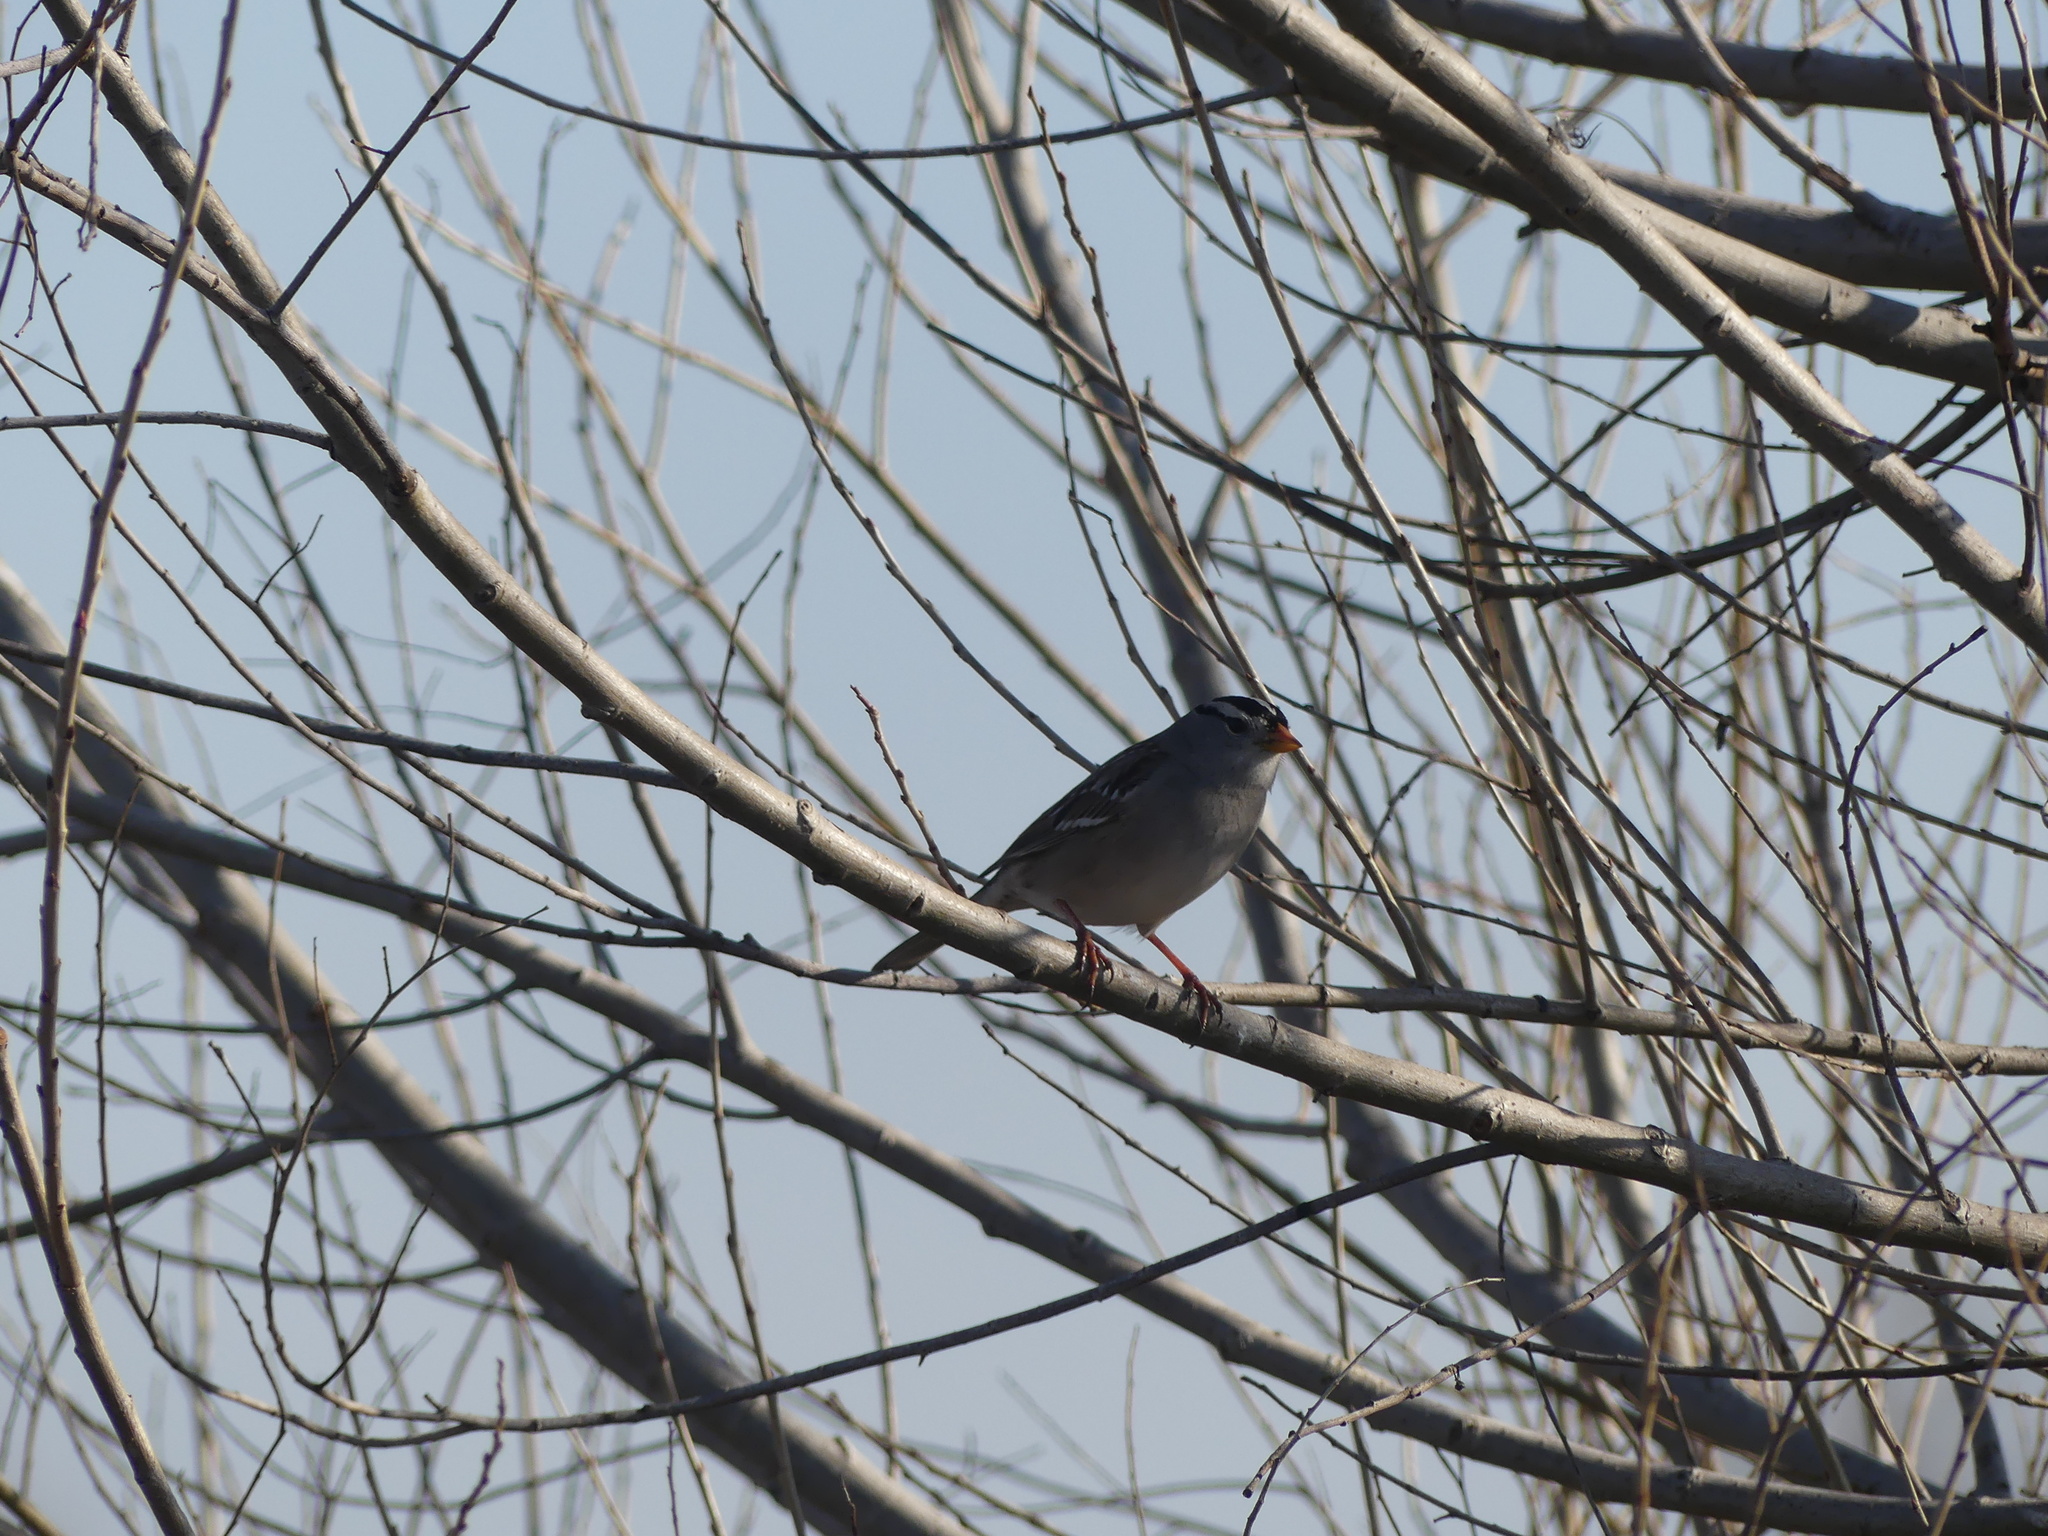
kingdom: Animalia
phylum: Chordata
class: Aves
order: Passeriformes
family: Passerellidae
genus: Zonotrichia
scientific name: Zonotrichia leucophrys
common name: White-crowned sparrow
